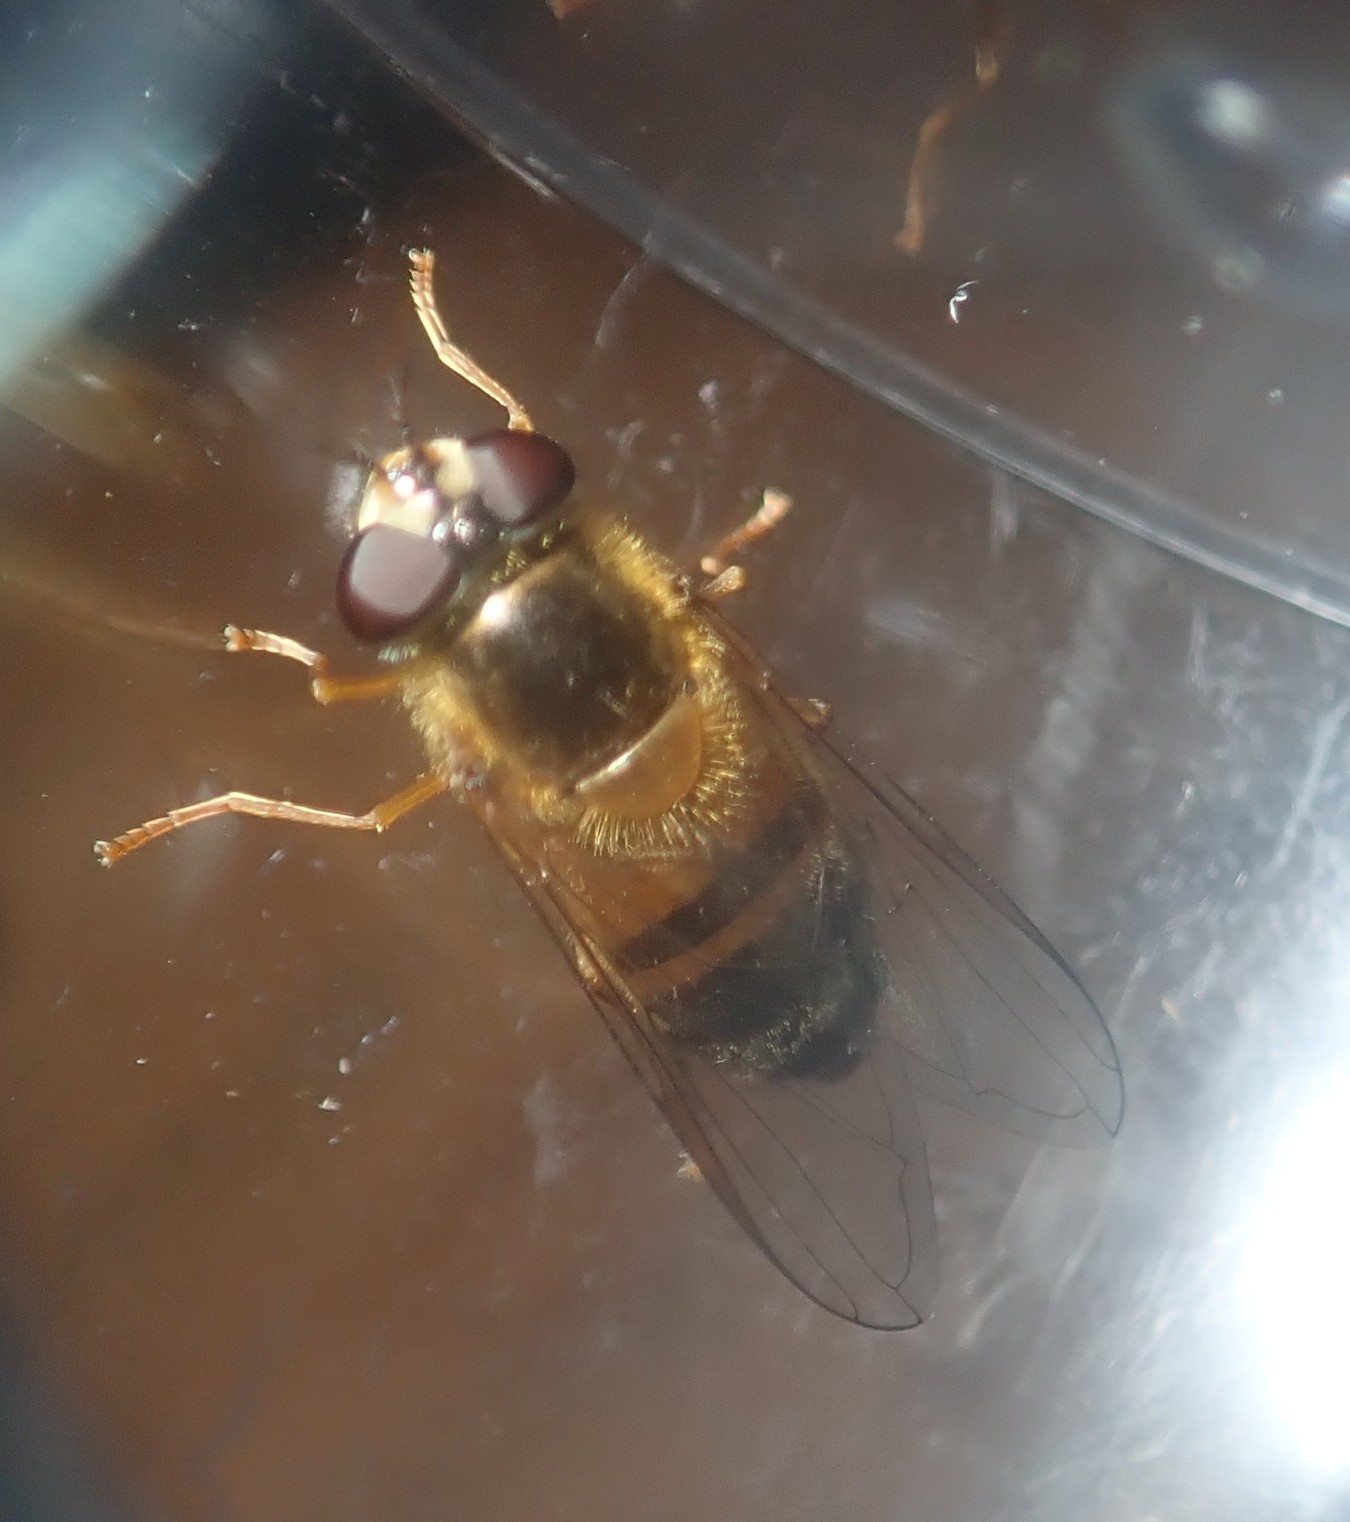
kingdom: Animalia
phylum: Arthropoda
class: Insecta
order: Diptera
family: Syrphidae
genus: Epistrophe
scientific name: Epistrophe eligans
